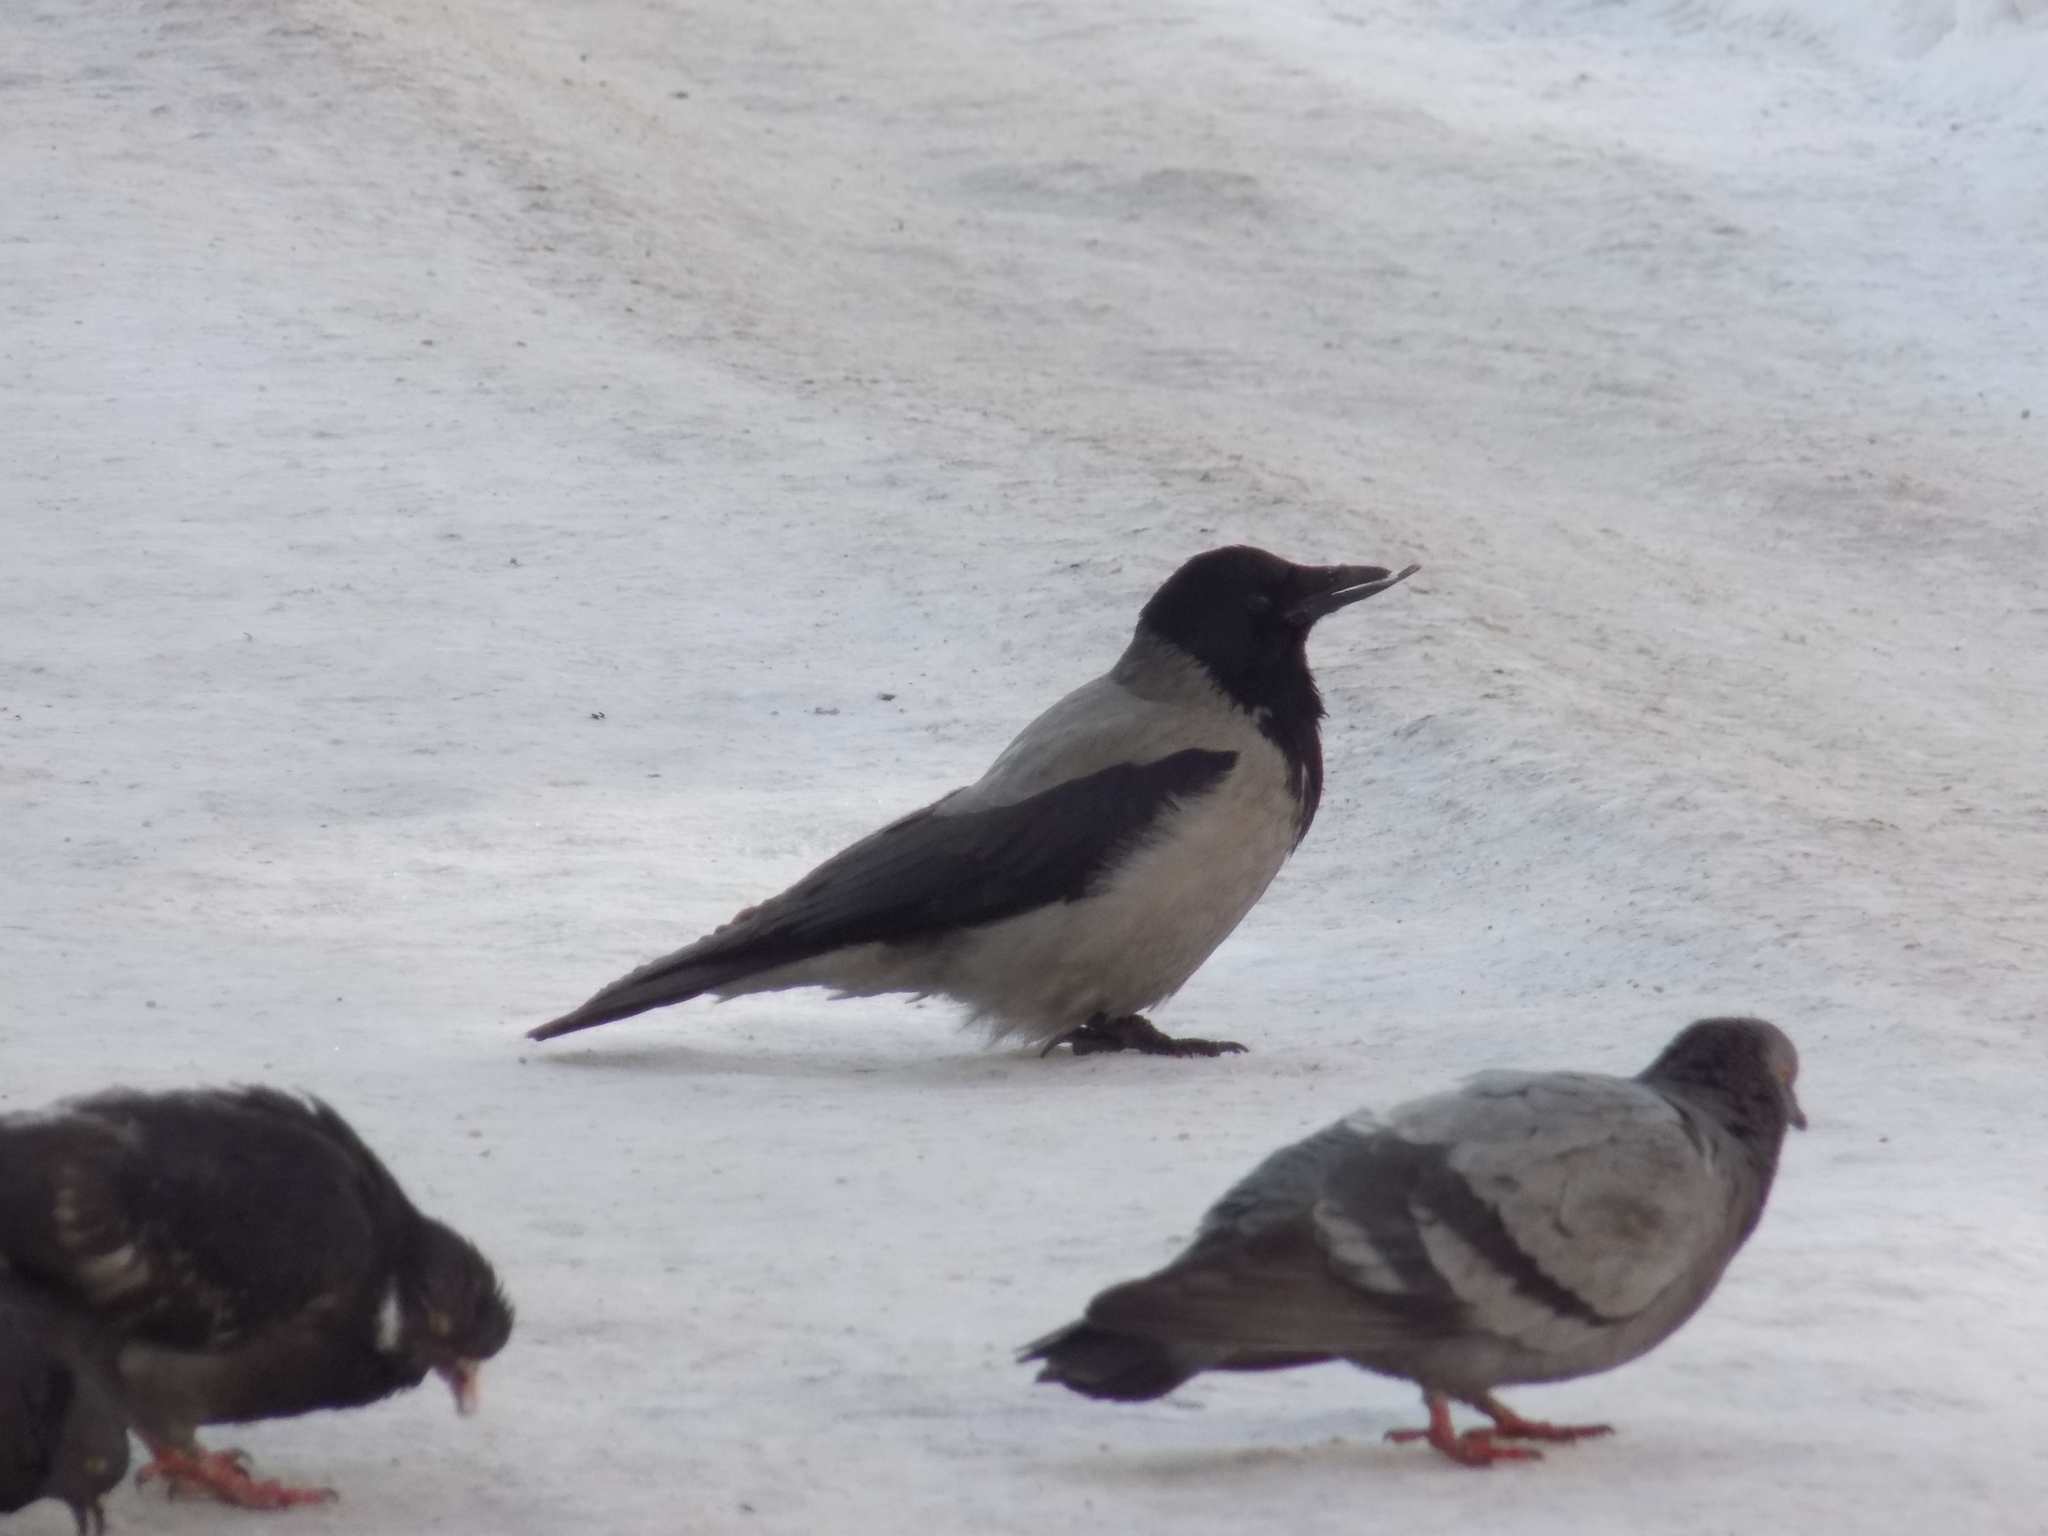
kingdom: Animalia
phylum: Chordata
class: Aves
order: Passeriformes
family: Corvidae
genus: Corvus
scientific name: Corvus cornix
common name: Hooded crow
